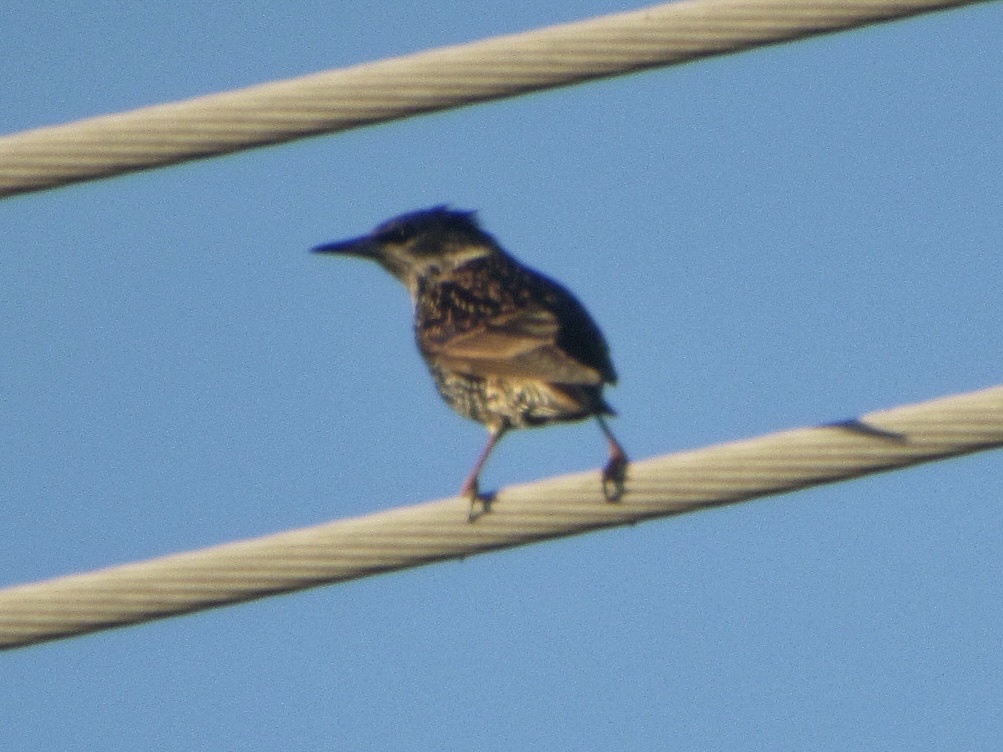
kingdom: Animalia
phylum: Chordata
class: Aves
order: Passeriformes
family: Sturnidae
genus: Sturnus
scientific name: Sturnus vulgaris
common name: Common starling
